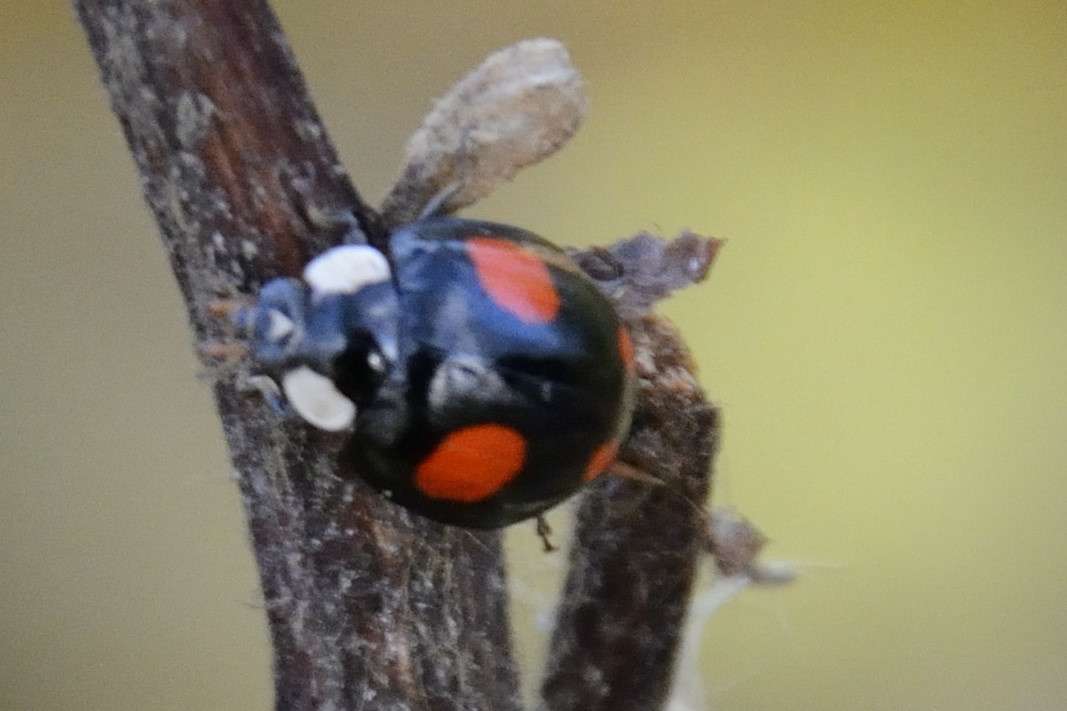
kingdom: Animalia
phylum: Arthropoda
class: Insecta
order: Coleoptera
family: Coccinellidae
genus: Harmonia
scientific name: Harmonia axyridis
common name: Harlequin ladybird
